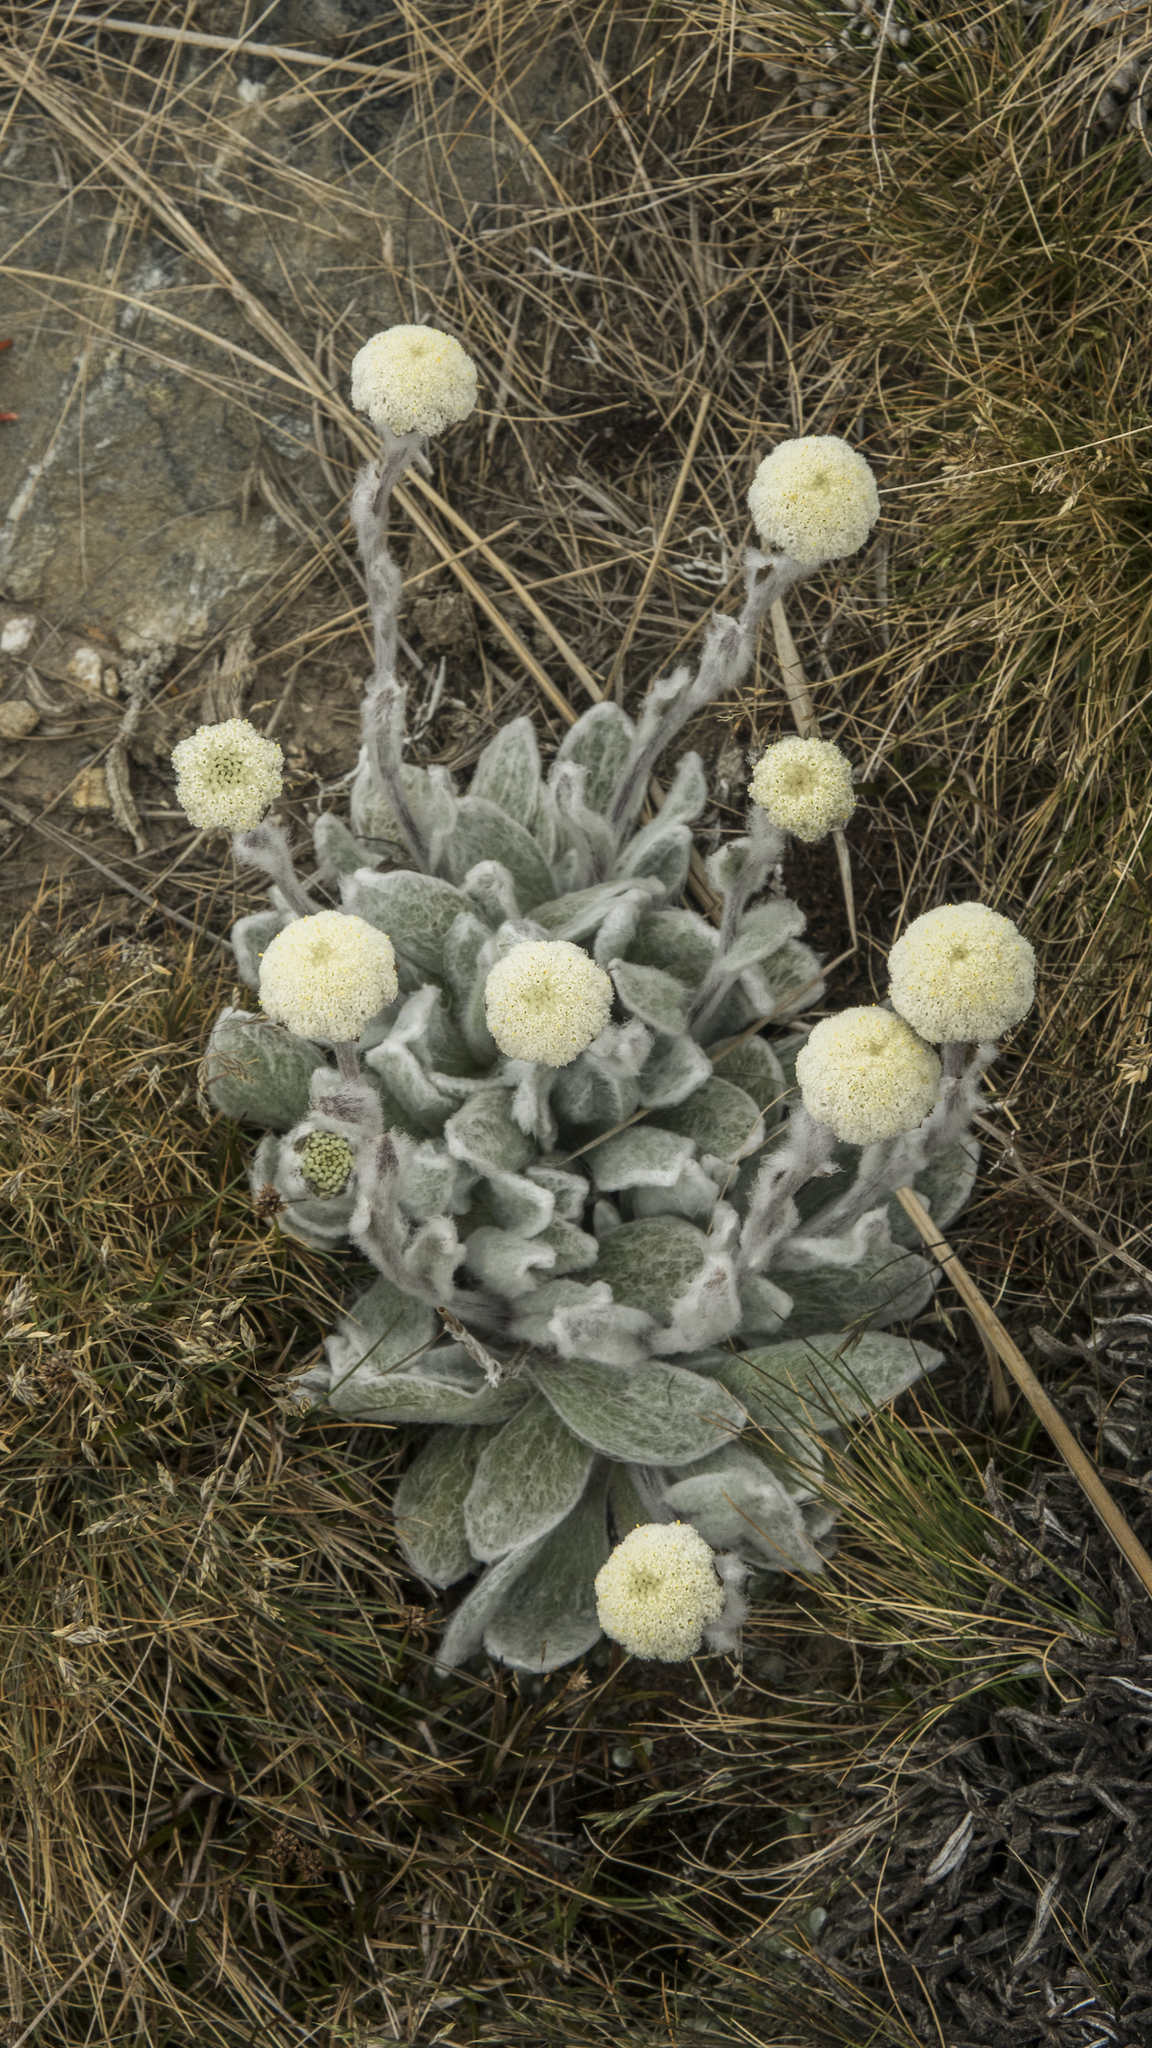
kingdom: Plantae
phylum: Tracheophyta
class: Magnoliopsida
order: Asterales
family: Asteraceae
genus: Craspedia
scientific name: Craspedia lanata
